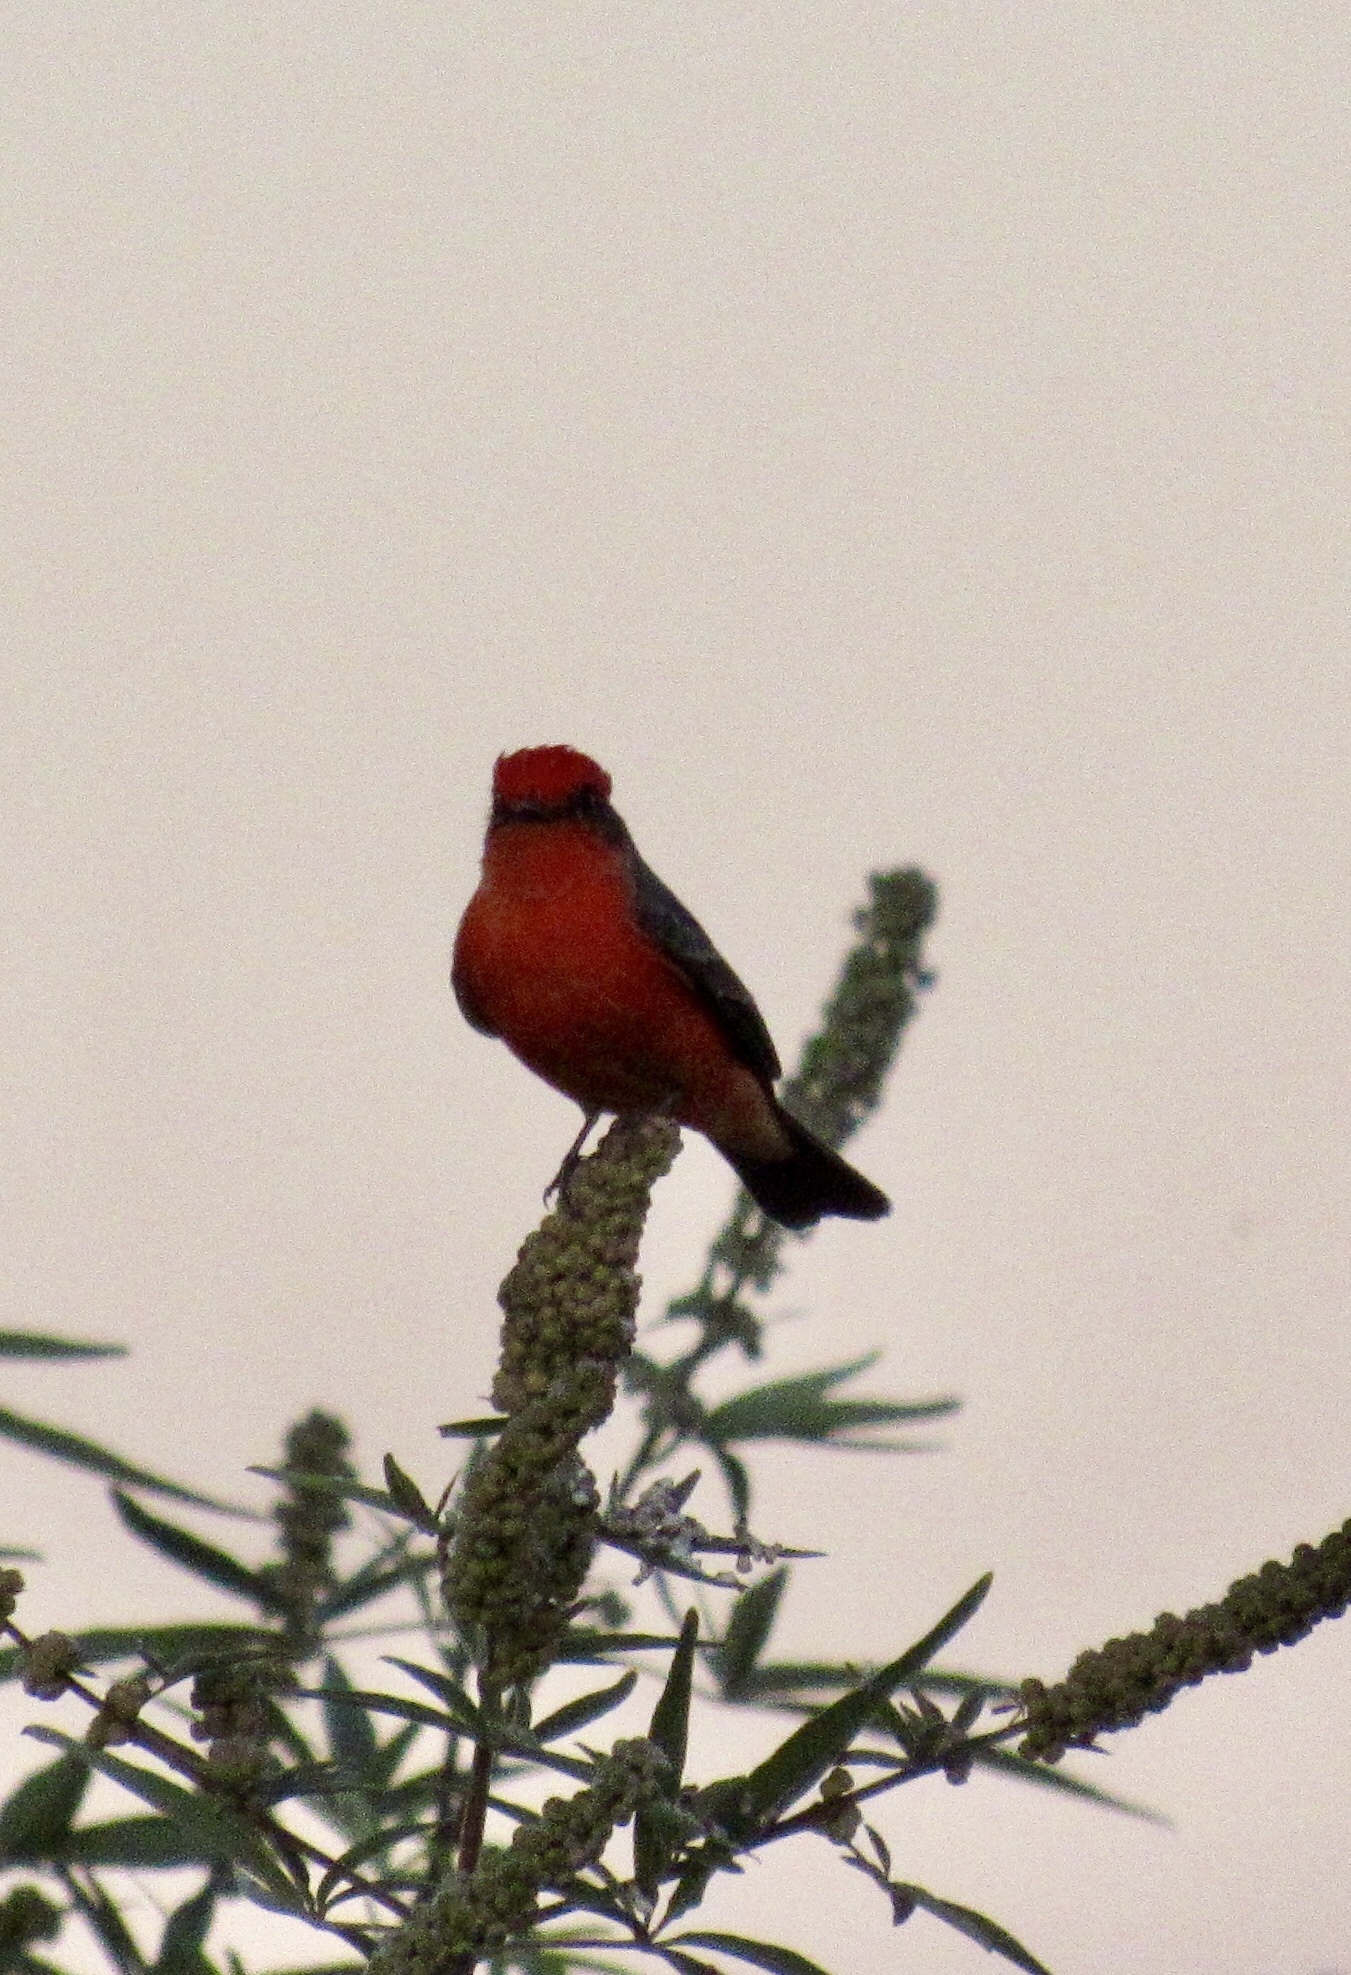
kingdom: Animalia
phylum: Chordata
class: Aves
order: Passeriformes
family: Tyrannidae
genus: Pyrocephalus
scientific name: Pyrocephalus rubinus
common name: Vermilion flycatcher
